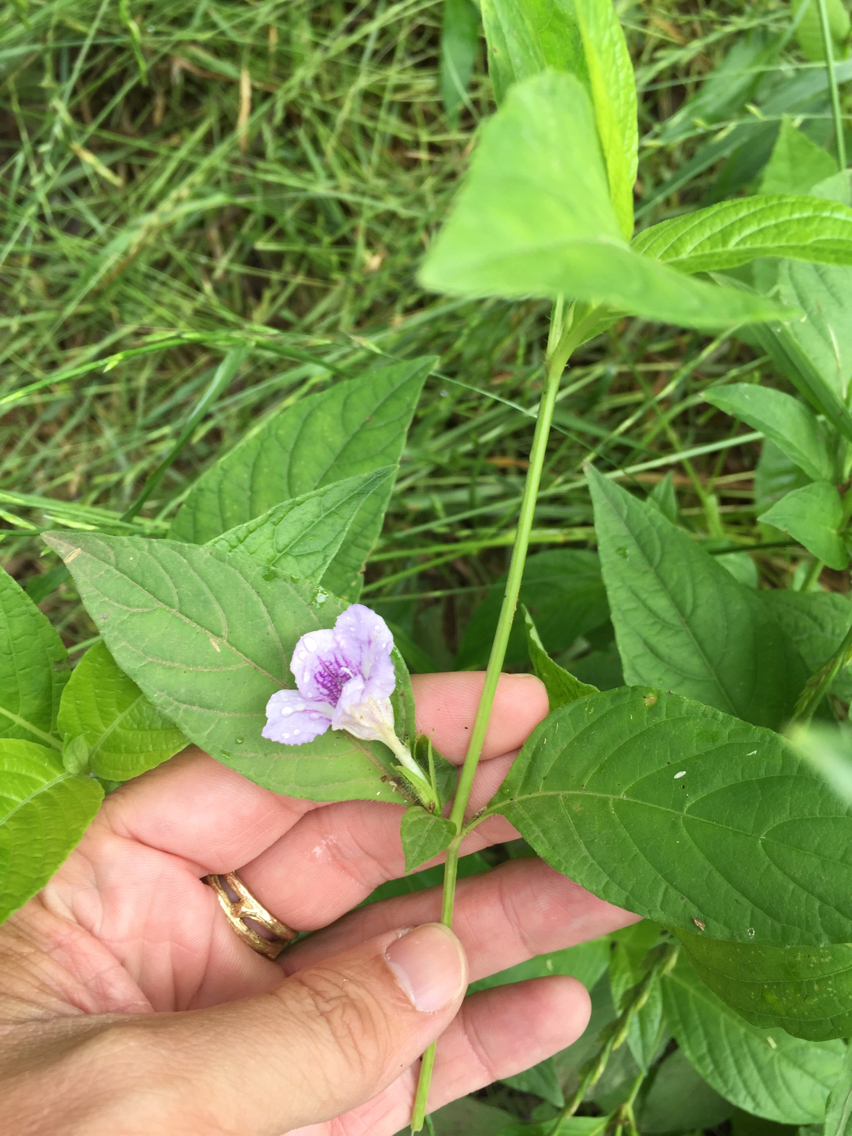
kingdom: Plantae
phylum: Tracheophyta
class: Magnoliopsida
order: Lamiales
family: Acanthaceae
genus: Ruellia
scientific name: Ruellia strepens
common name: Limestone wild petunia
